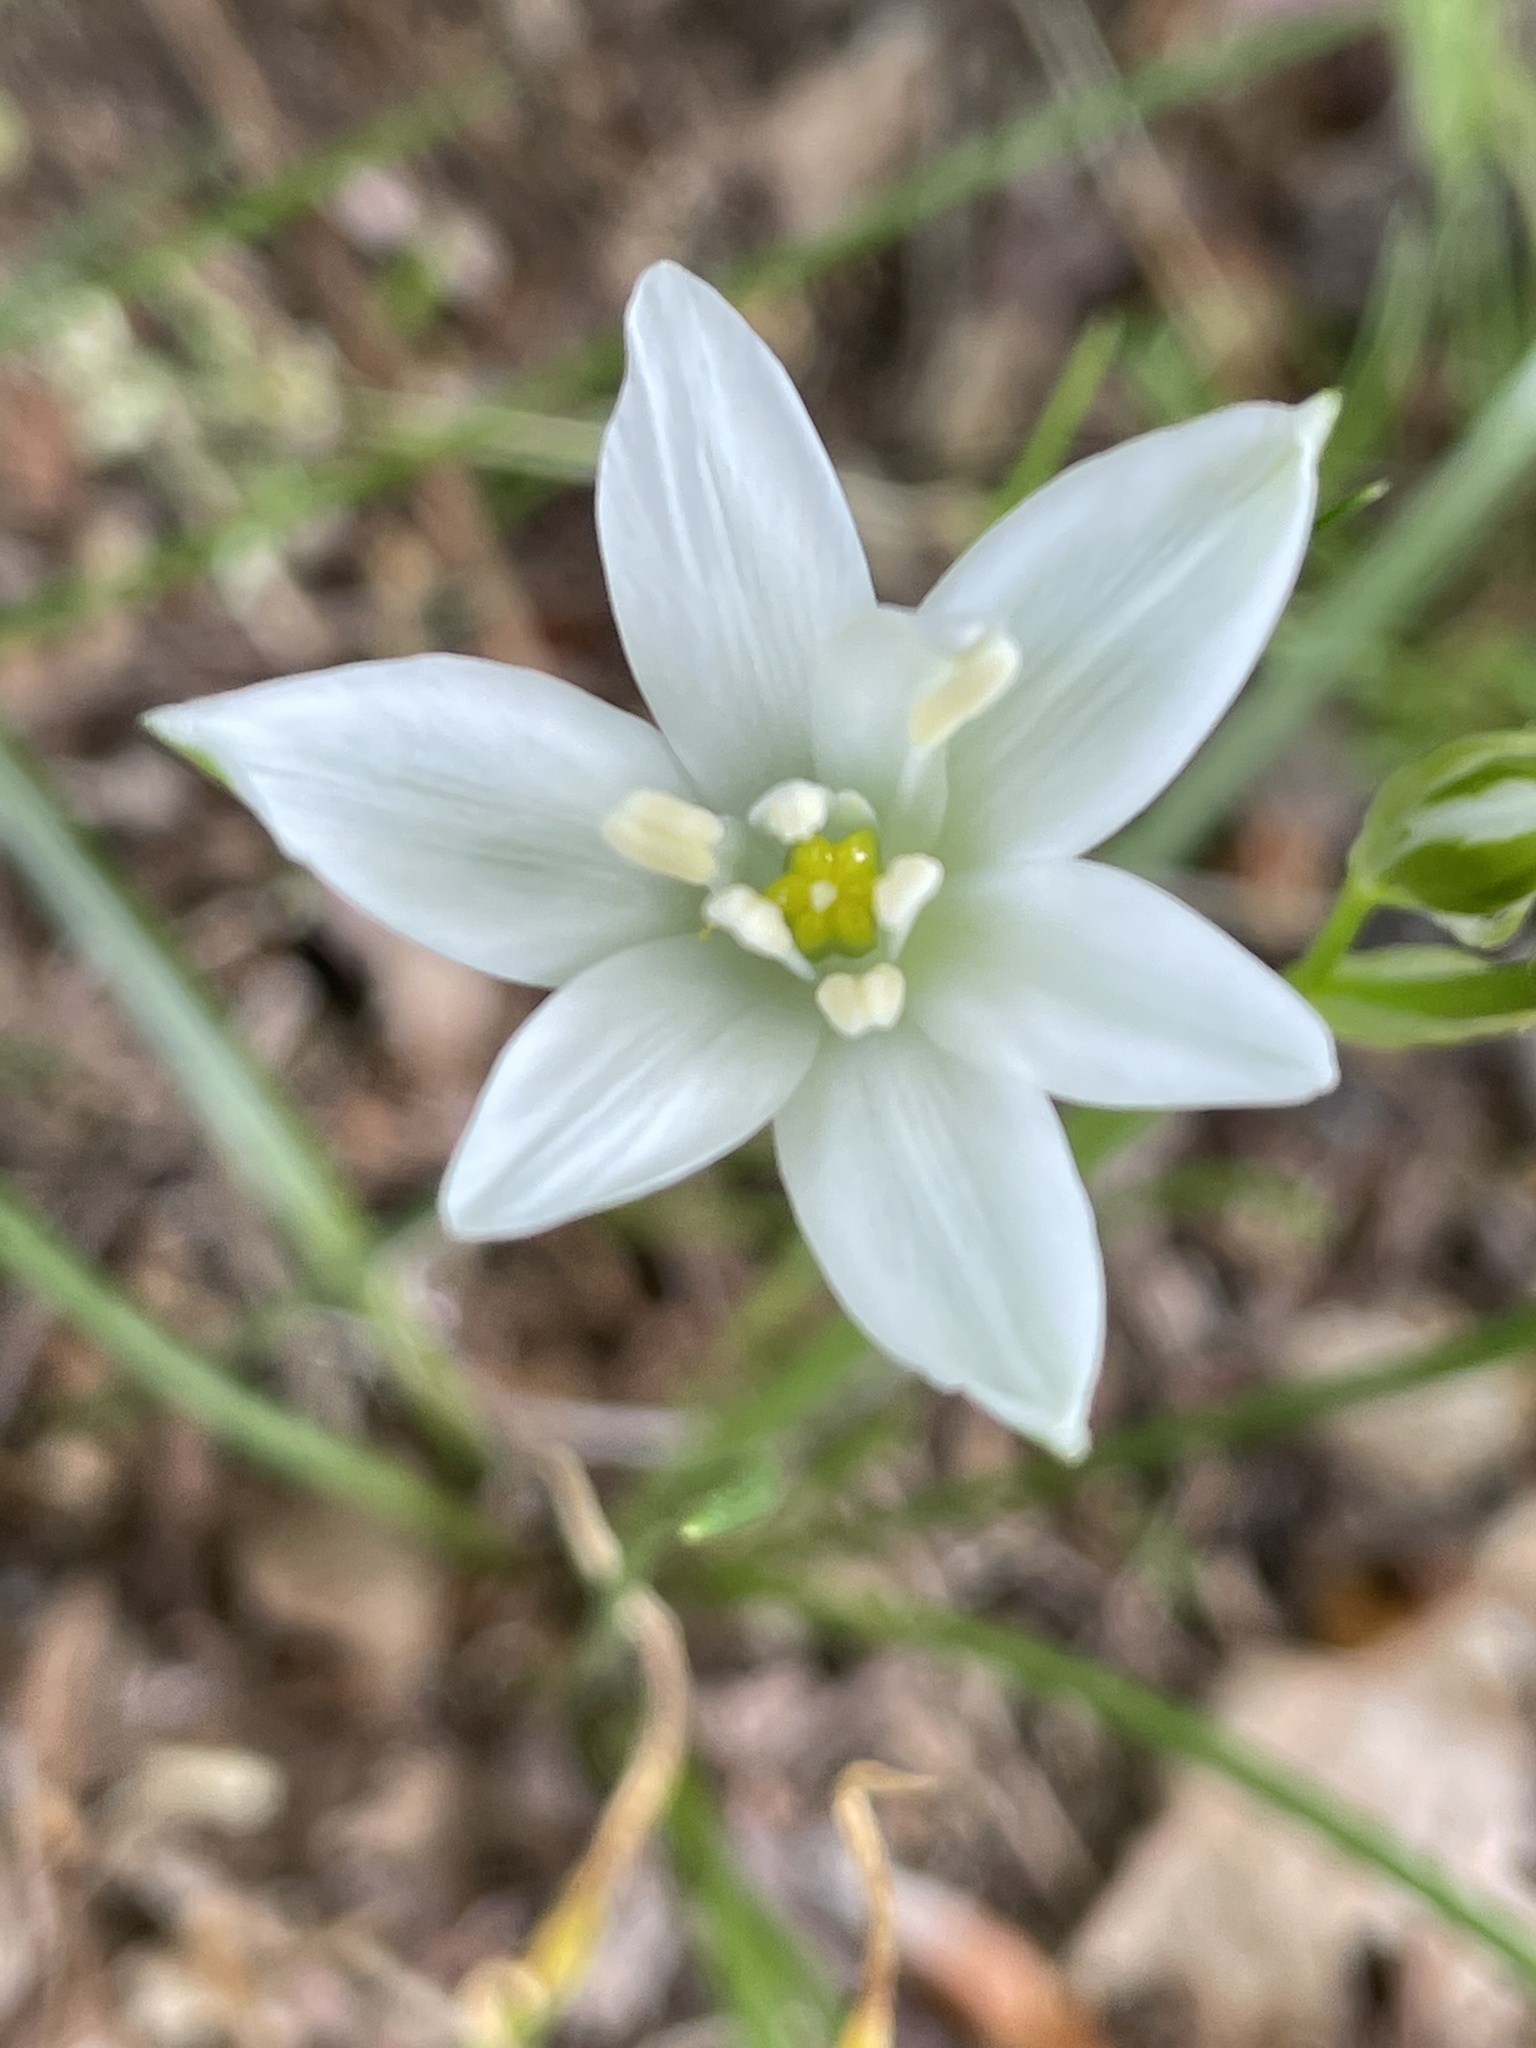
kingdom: Plantae
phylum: Tracheophyta
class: Liliopsida
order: Asparagales
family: Asparagaceae
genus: Ornithogalum
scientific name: Ornithogalum umbellatum
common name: Garden star-of-bethlehem
